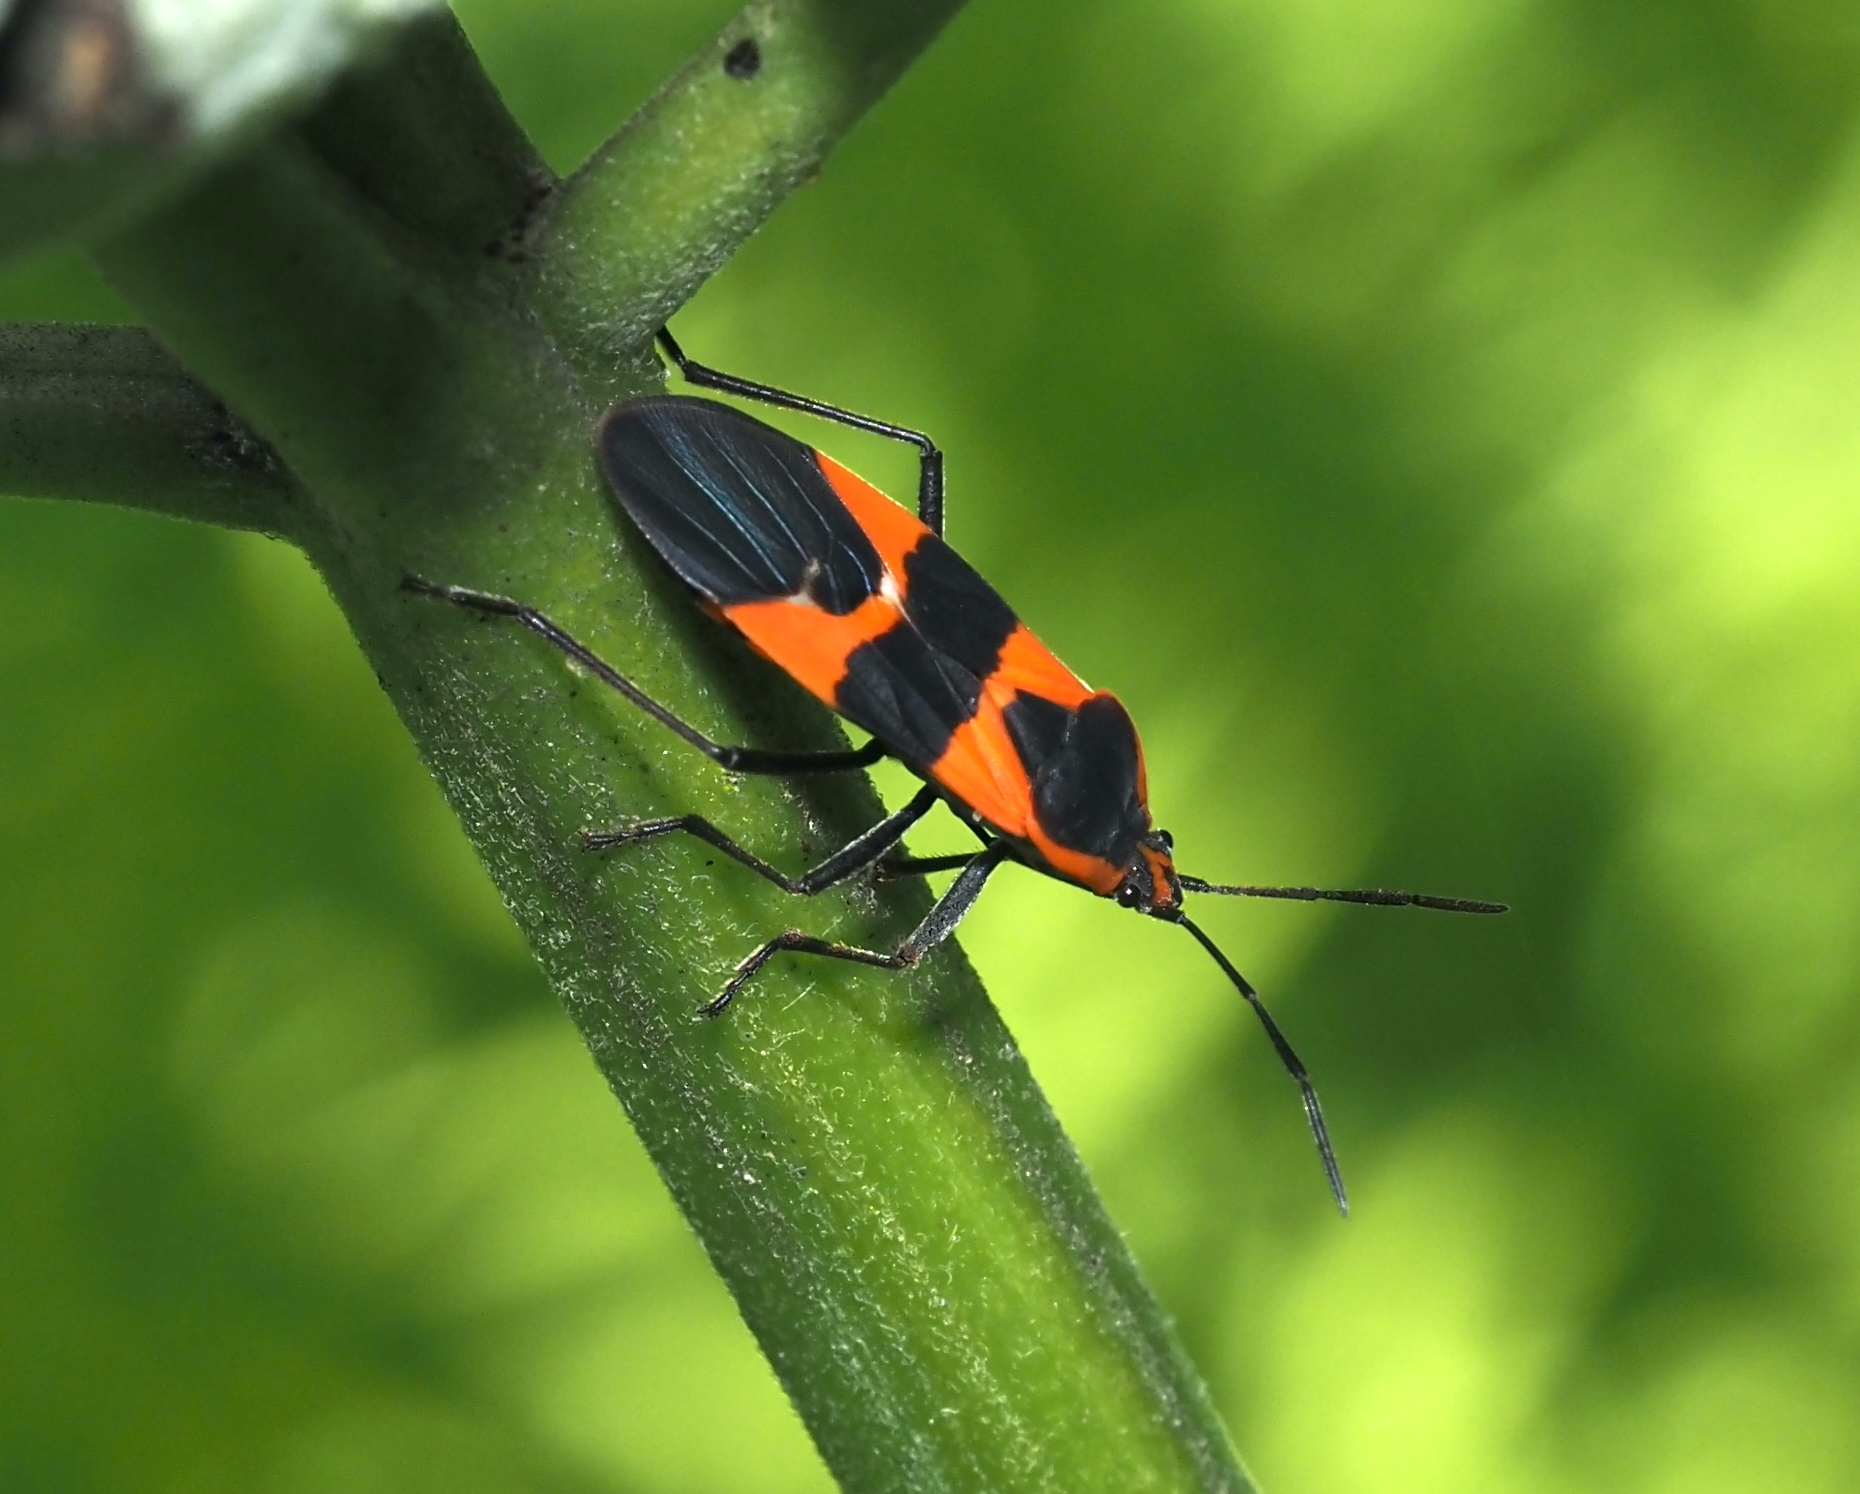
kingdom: Animalia
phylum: Arthropoda
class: Insecta
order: Hemiptera
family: Lygaeidae
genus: Oncopeltus
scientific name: Oncopeltus fasciatus
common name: Large milkweed bug
